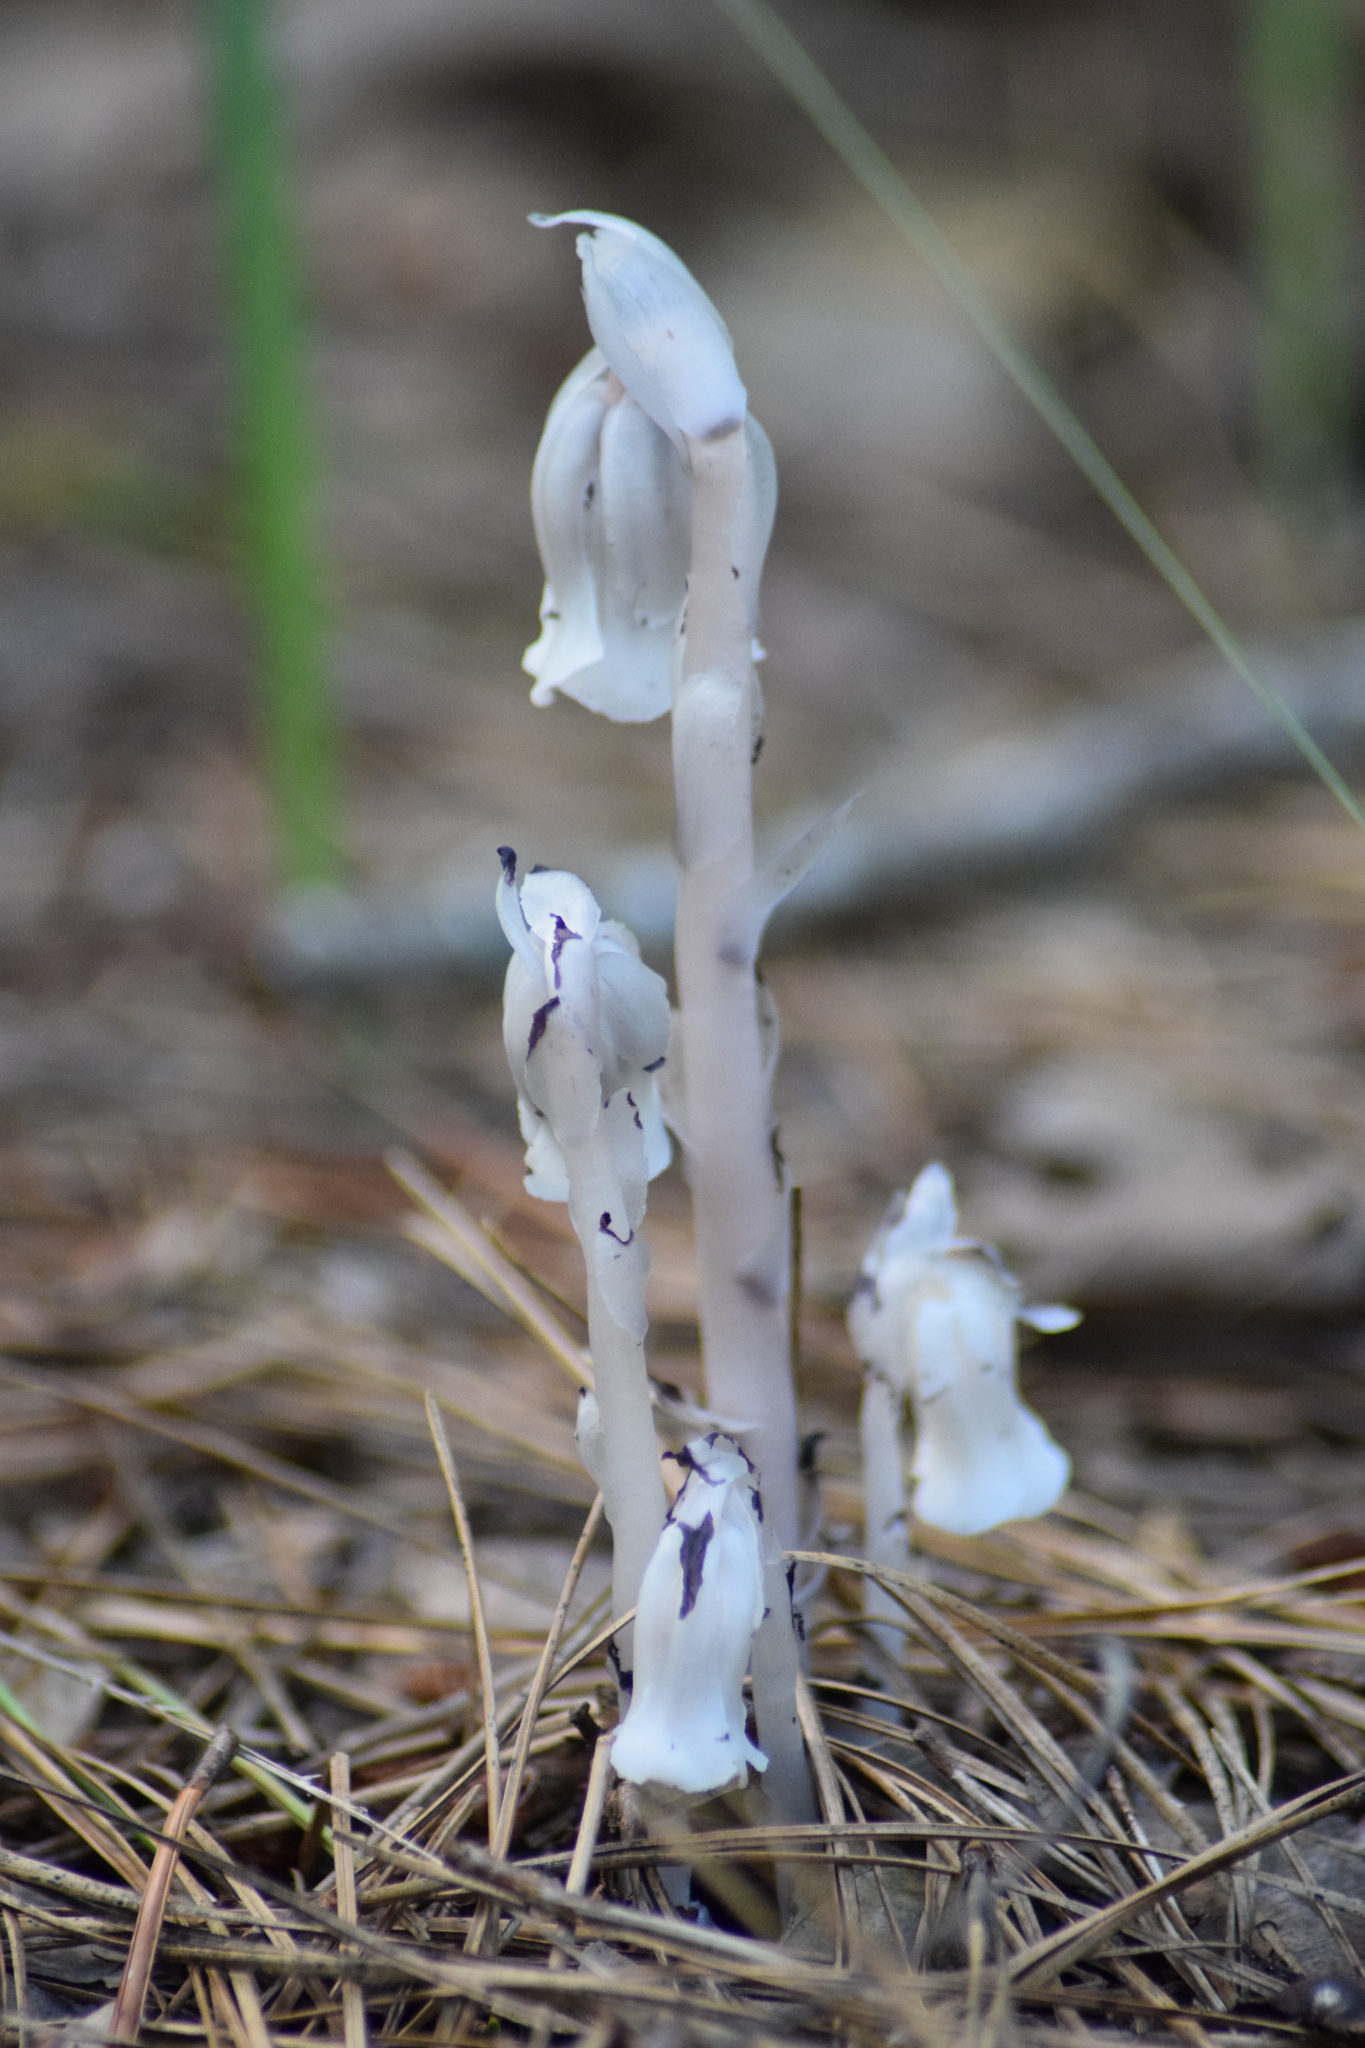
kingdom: Plantae
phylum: Tracheophyta
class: Magnoliopsida
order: Ericales
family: Ericaceae
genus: Monotropa
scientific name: Monotropa uniflora
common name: Convulsion root
